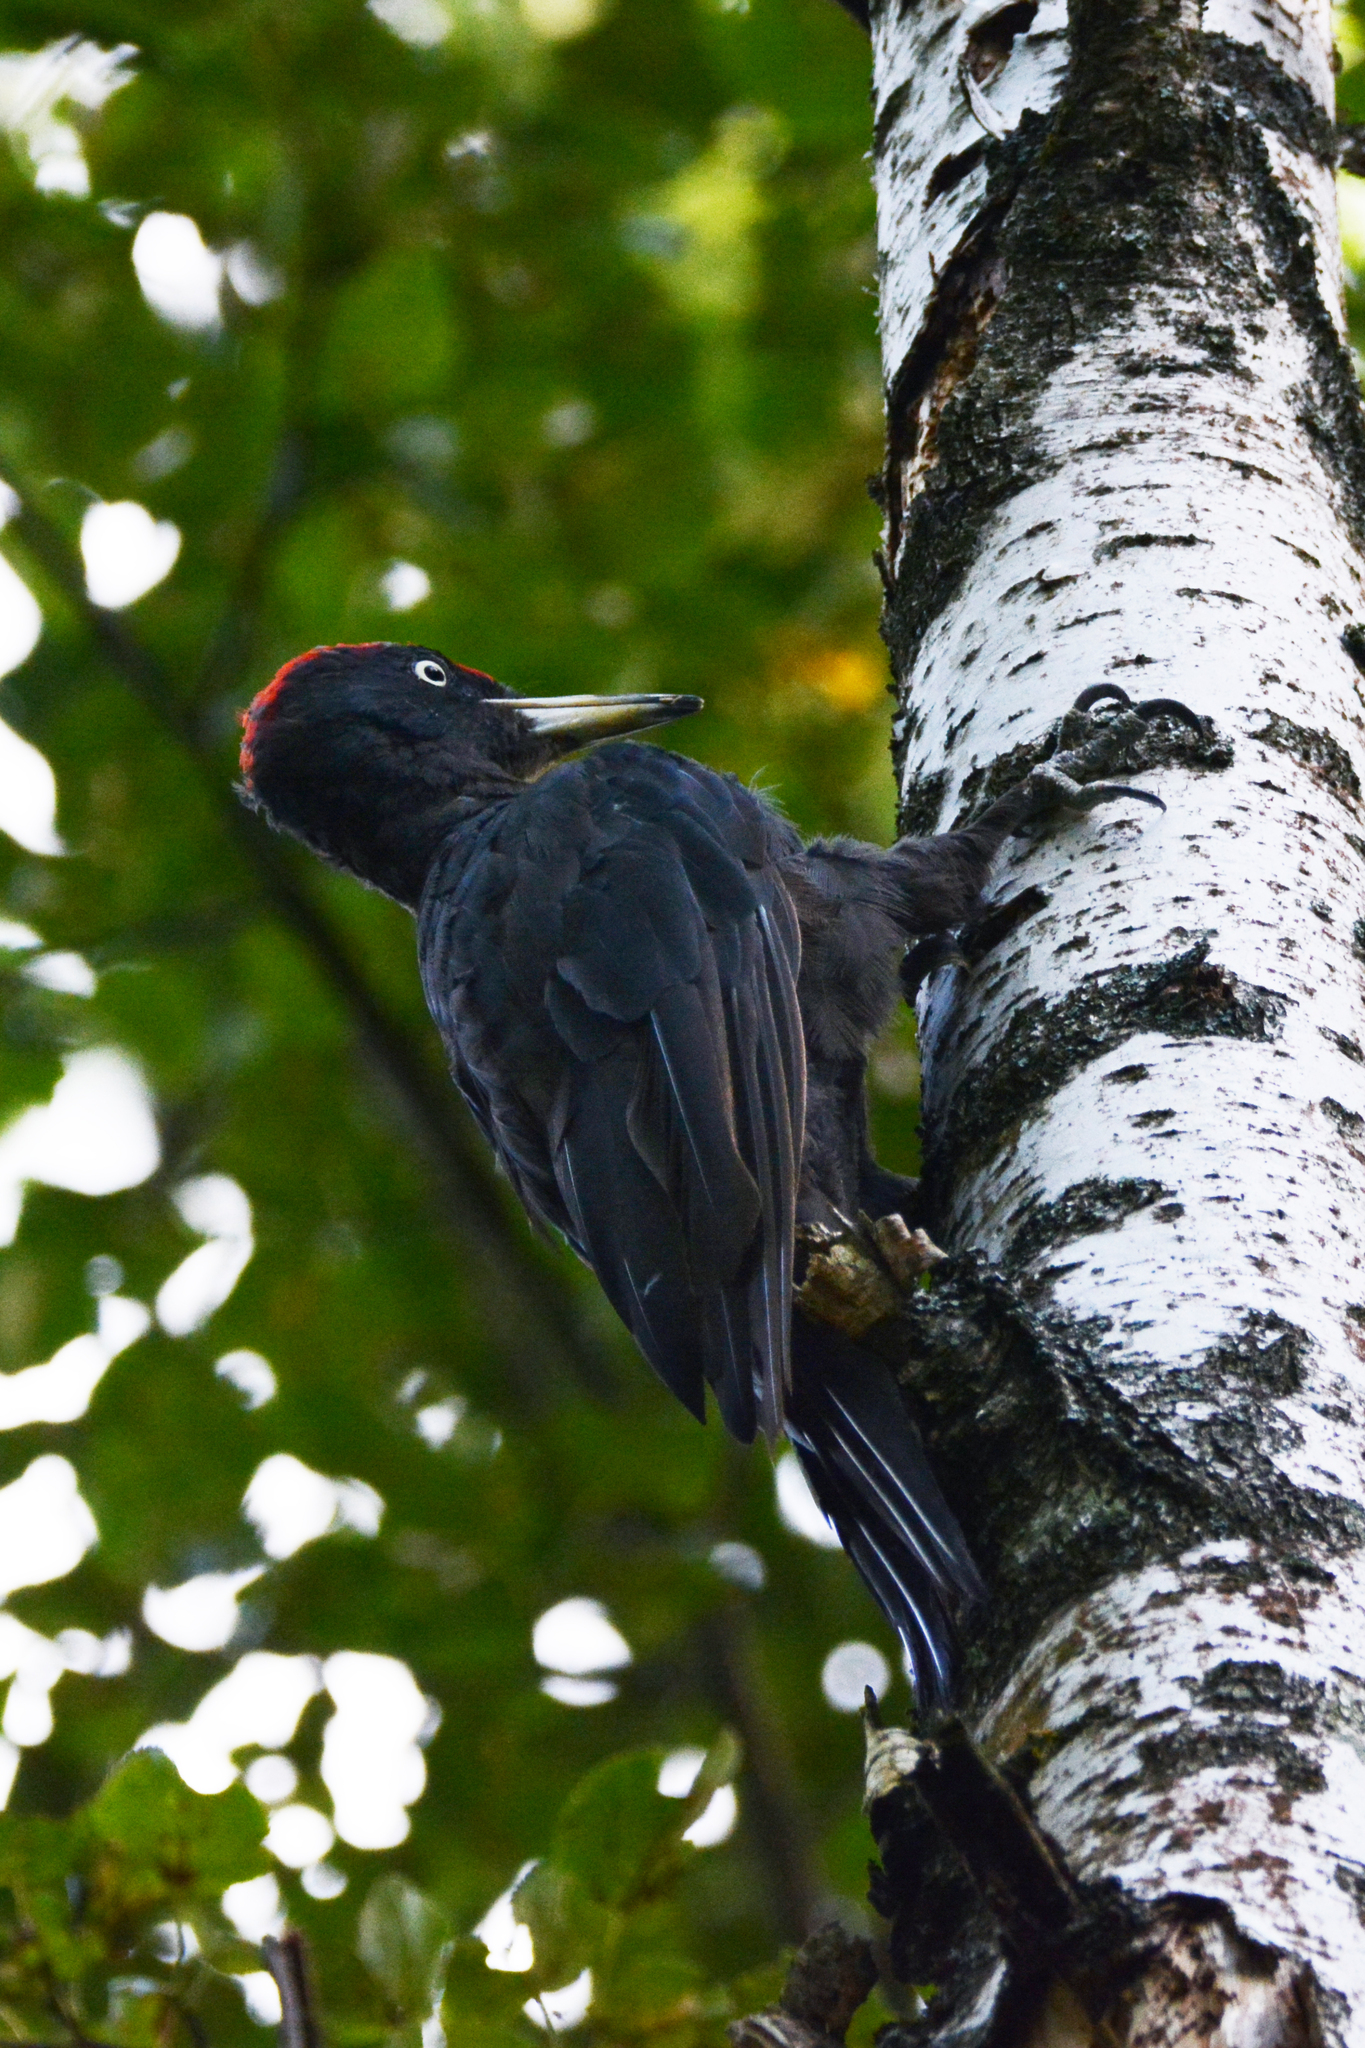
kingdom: Animalia
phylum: Chordata
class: Aves
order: Piciformes
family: Picidae
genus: Dryocopus
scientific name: Dryocopus martius
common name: Black woodpecker
